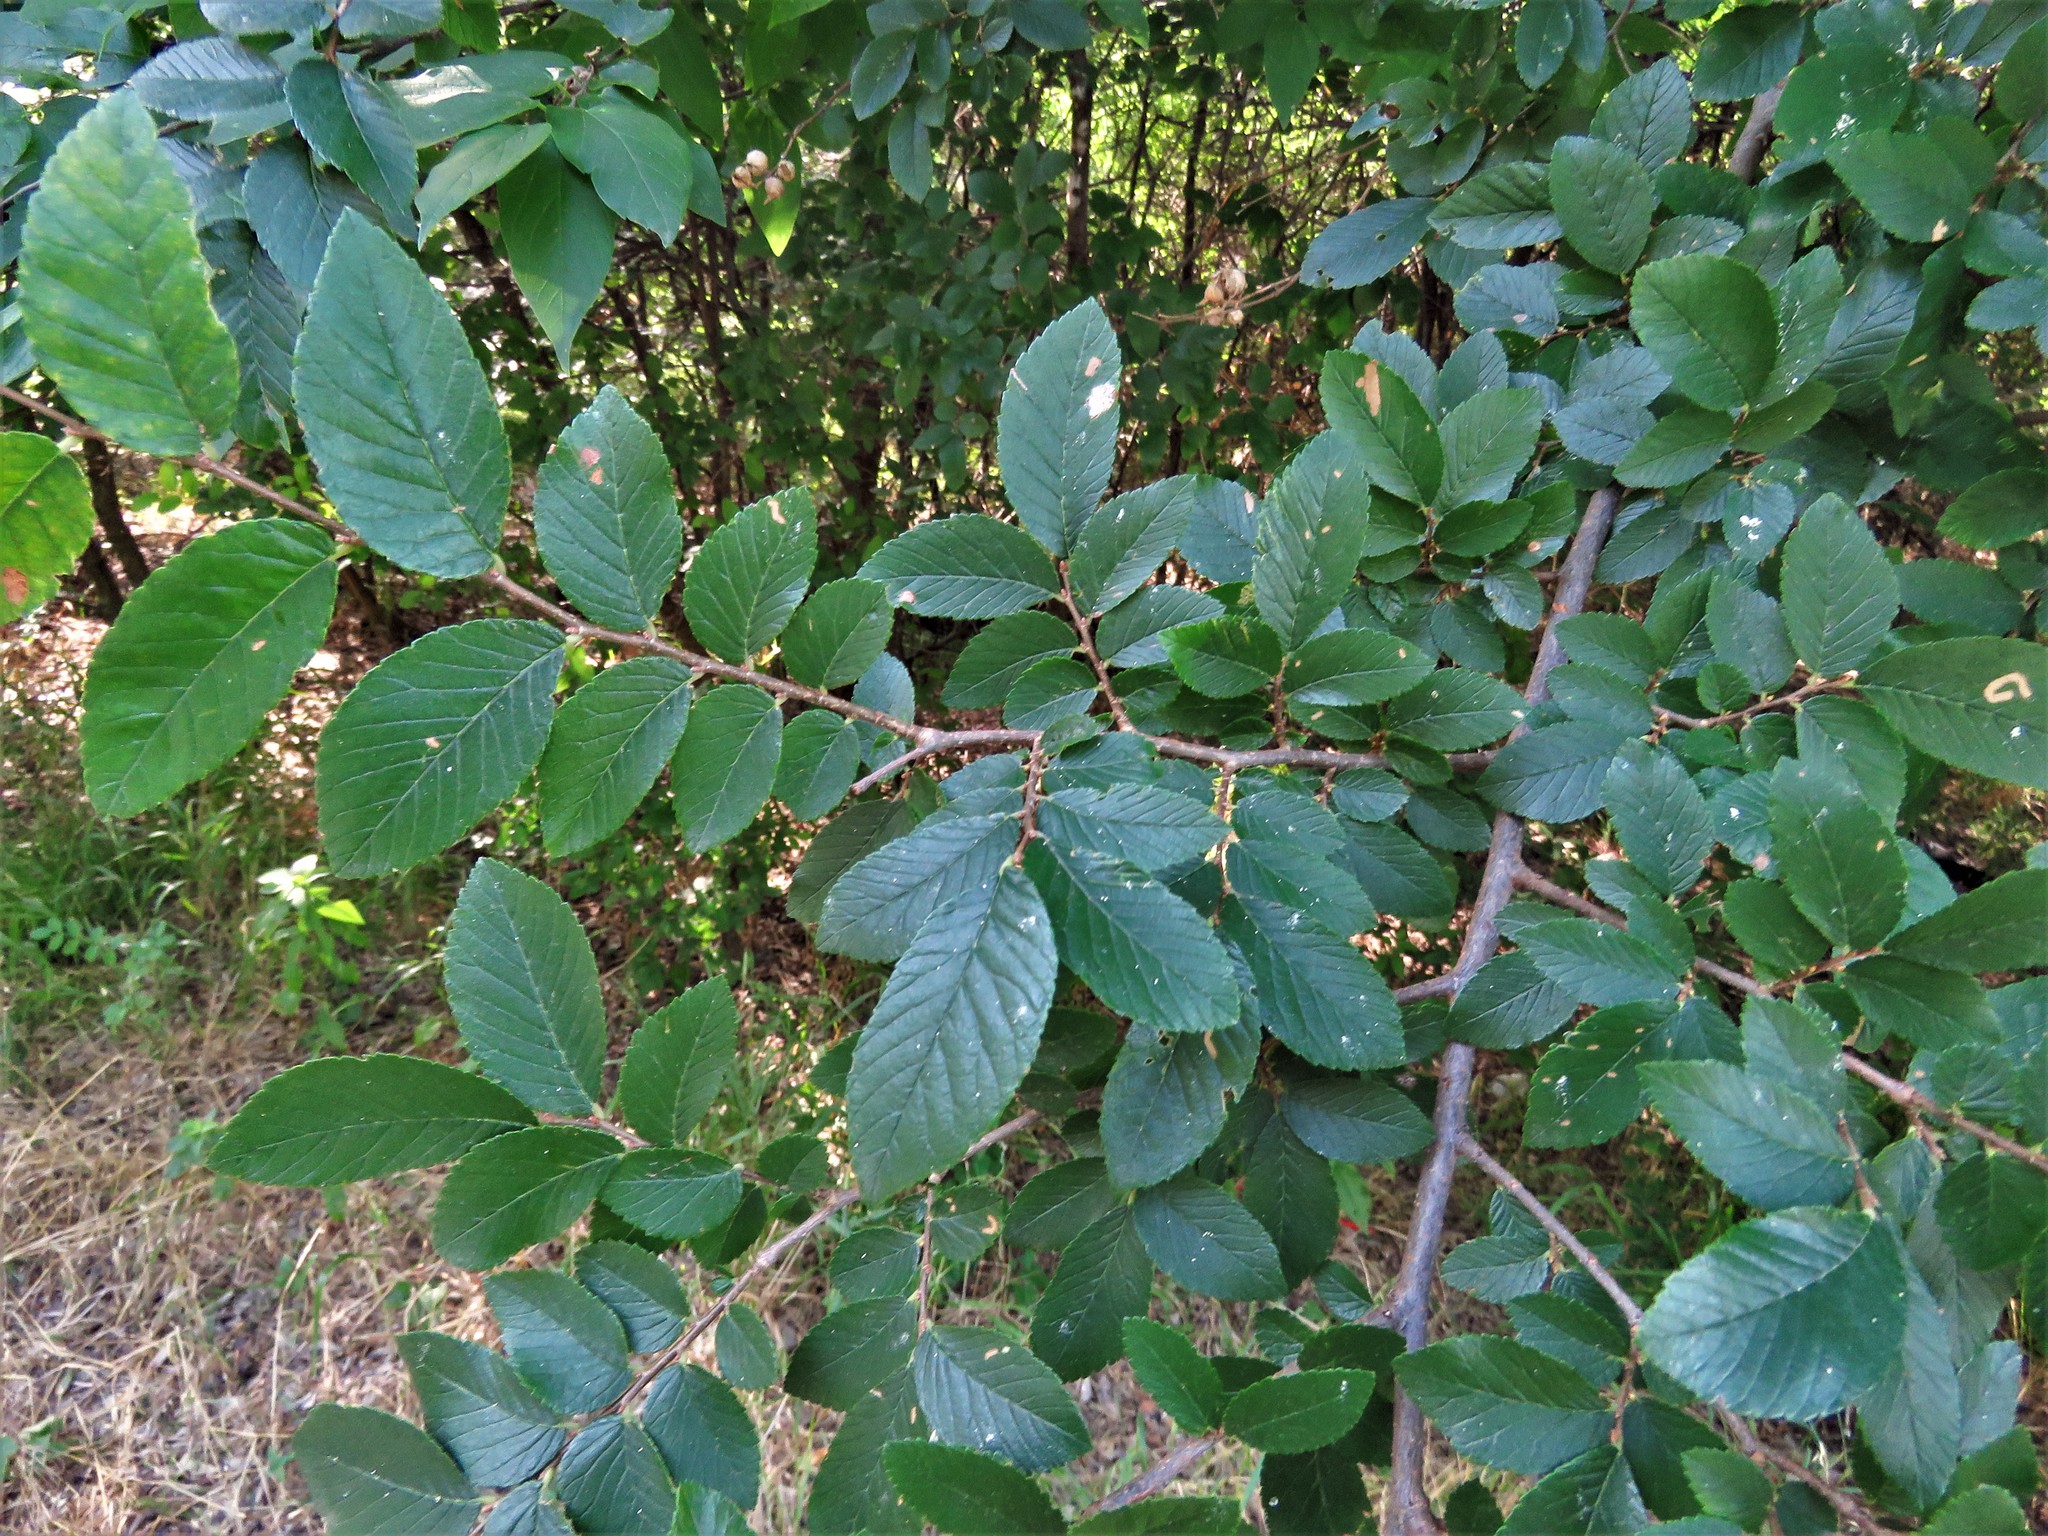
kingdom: Plantae
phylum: Tracheophyta
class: Magnoliopsida
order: Rosales
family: Ulmaceae
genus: Ulmus
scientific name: Ulmus crassifolia
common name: Basket elm
